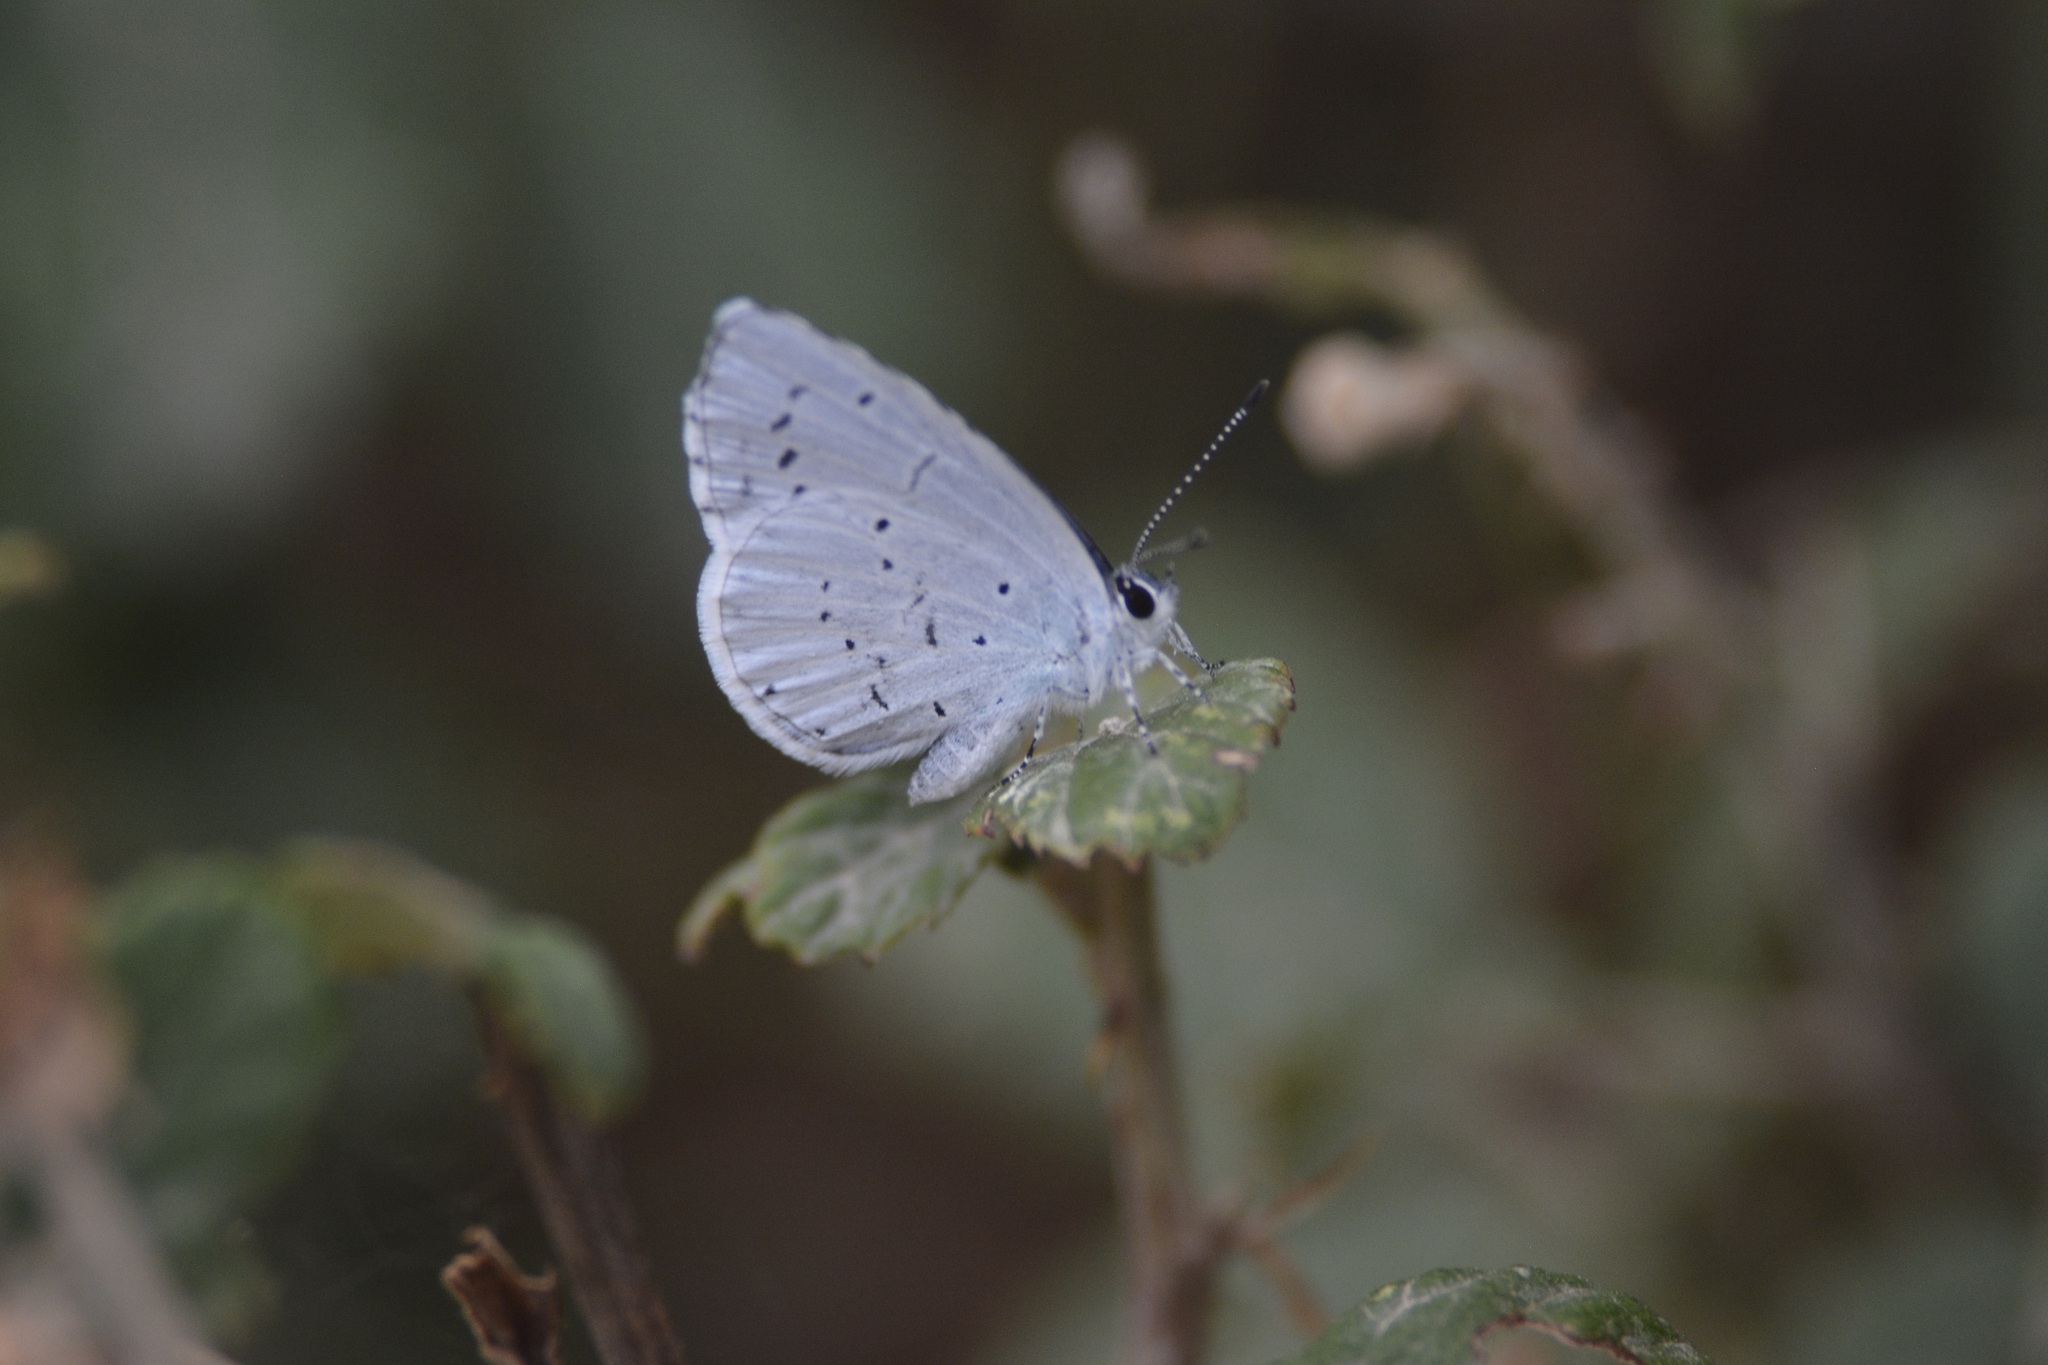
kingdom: Animalia
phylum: Arthropoda
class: Insecta
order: Lepidoptera
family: Lycaenidae
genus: Celastrina
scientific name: Celastrina argiolus
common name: Holly blue
